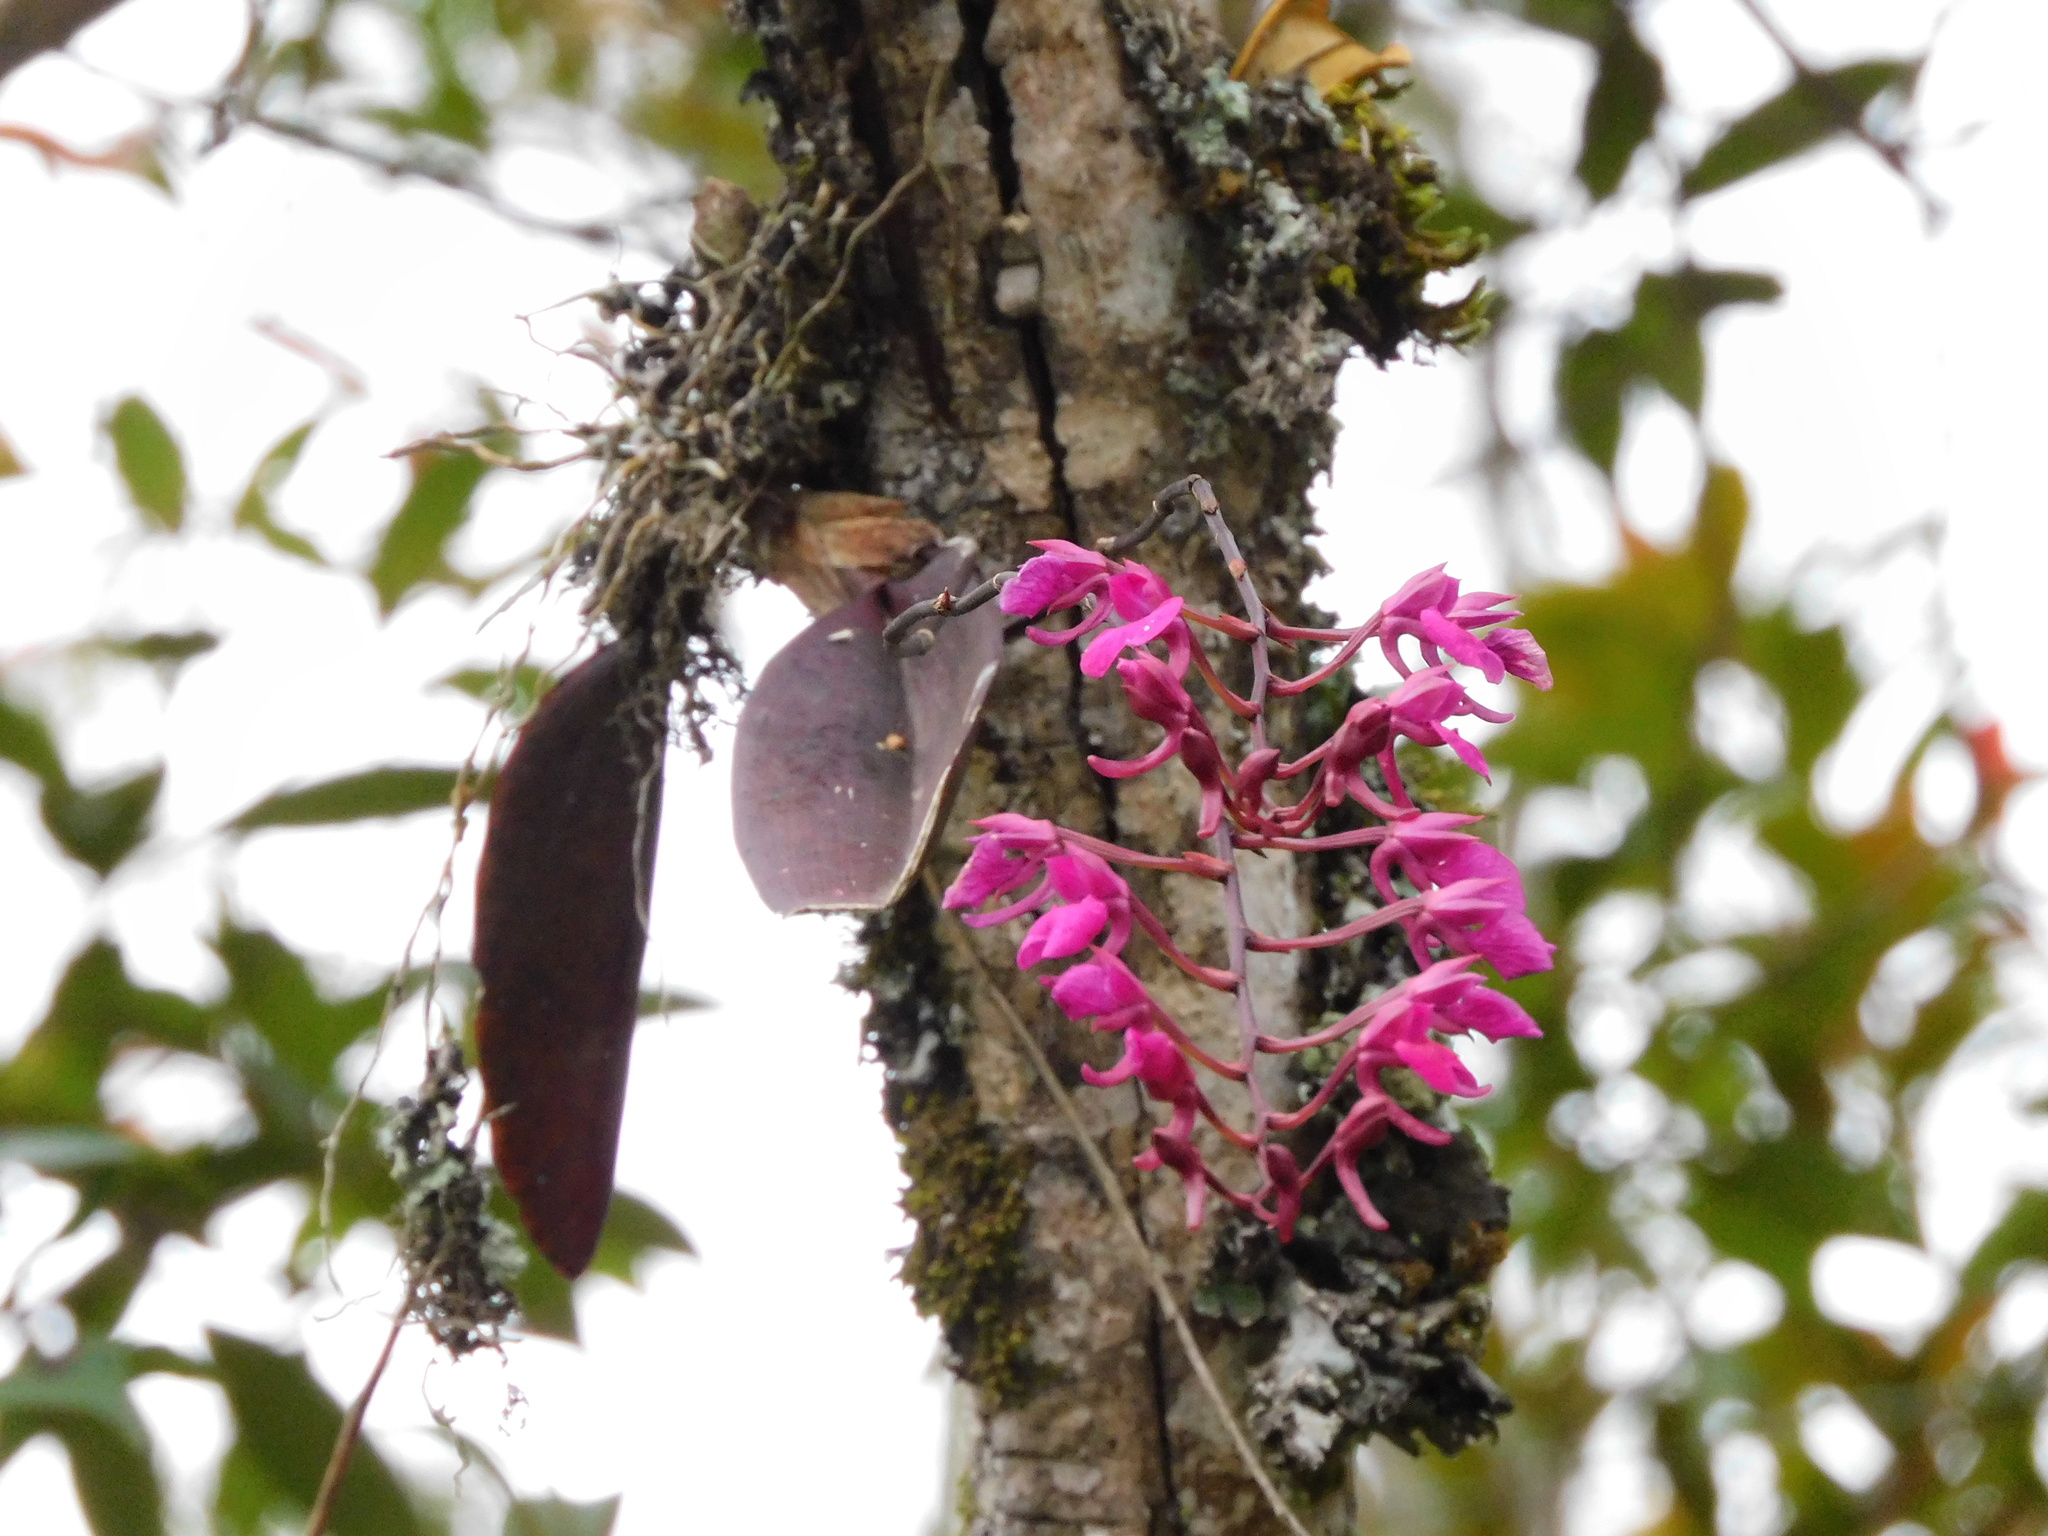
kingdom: Plantae
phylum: Tracheophyta
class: Liliopsida
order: Asparagales
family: Orchidaceae
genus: Comparettia
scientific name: Comparettia falcata
